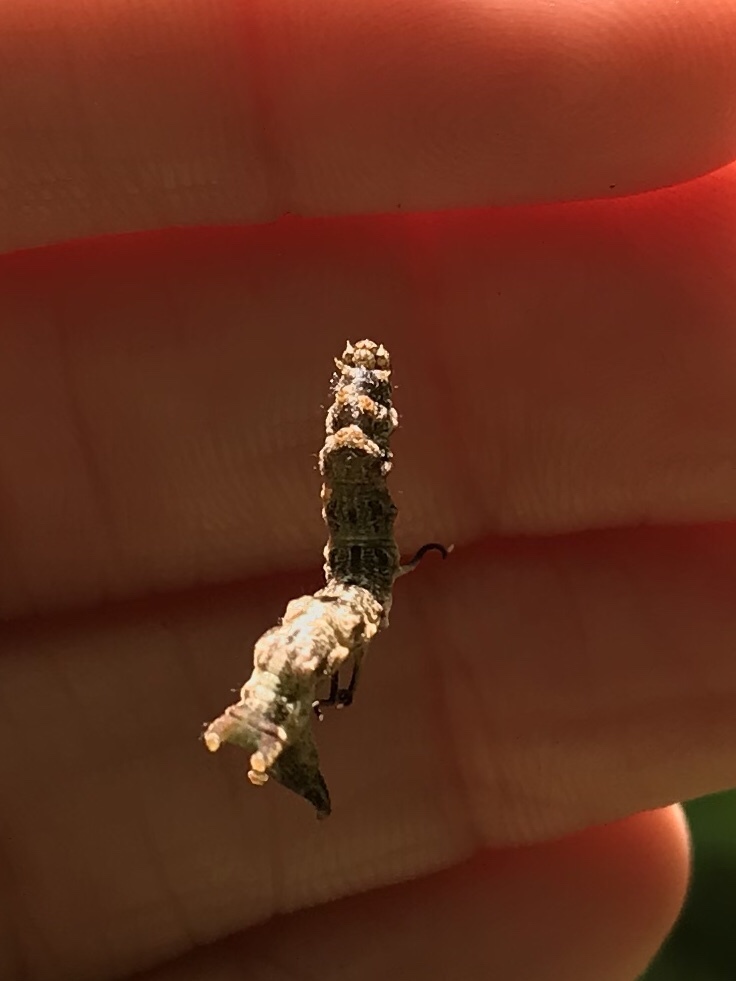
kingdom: Animalia
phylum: Arthropoda
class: Insecta
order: Lepidoptera
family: Geometridae
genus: Nematocampa
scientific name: Nematocampa resistaria
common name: Horned spanworm moth
